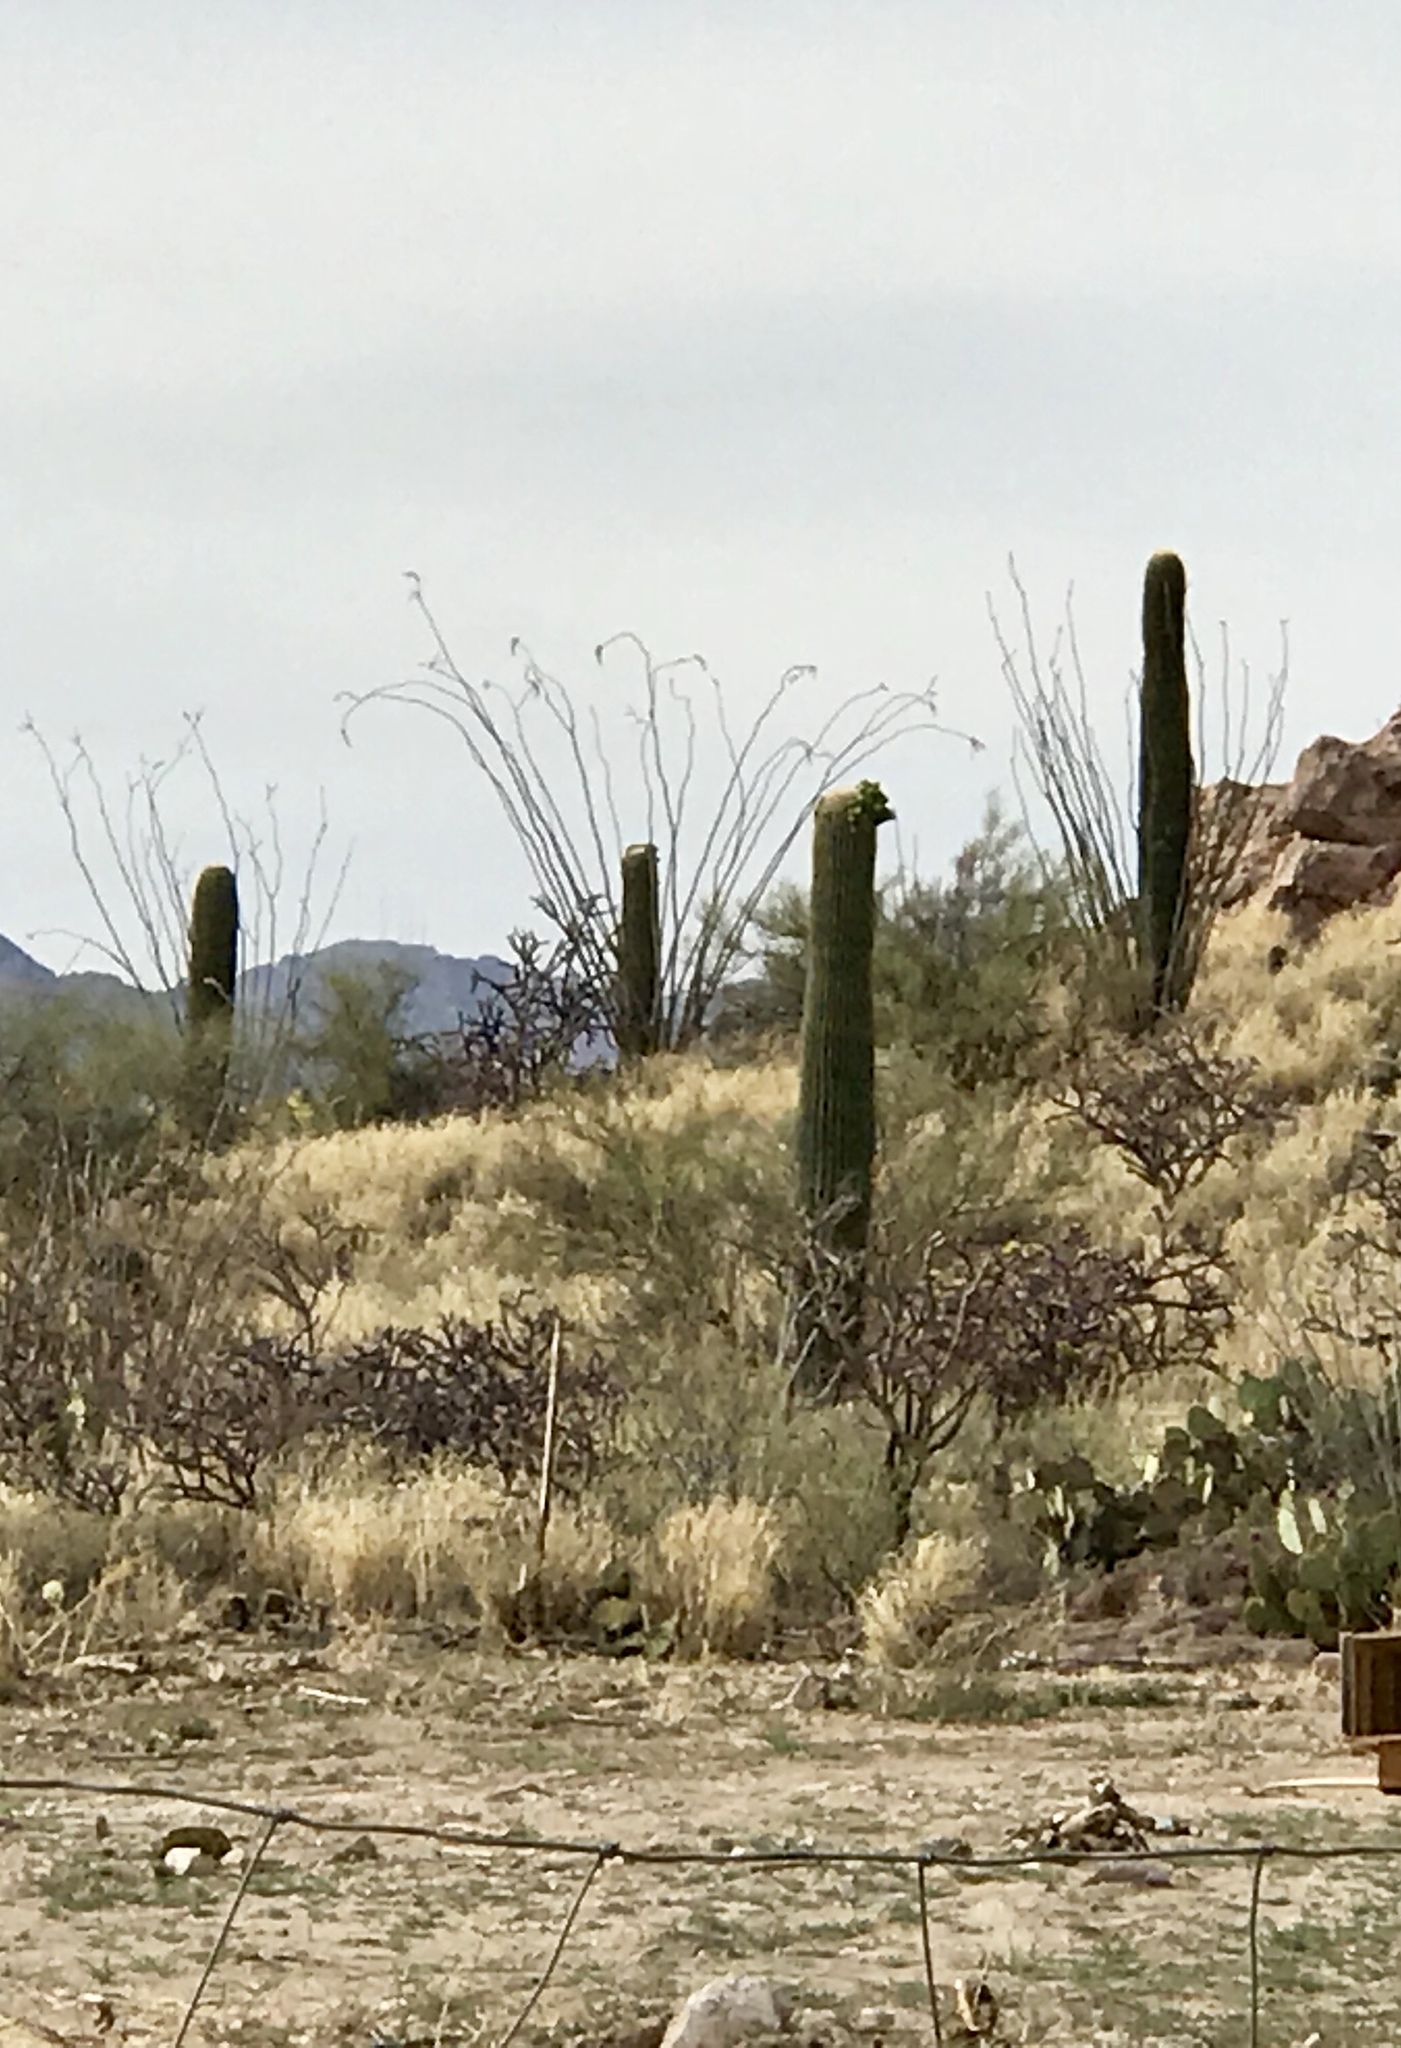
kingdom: Plantae
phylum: Tracheophyta
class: Magnoliopsida
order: Caryophyllales
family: Cactaceae
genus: Carnegiea
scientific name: Carnegiea gigantea
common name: Saguaro
